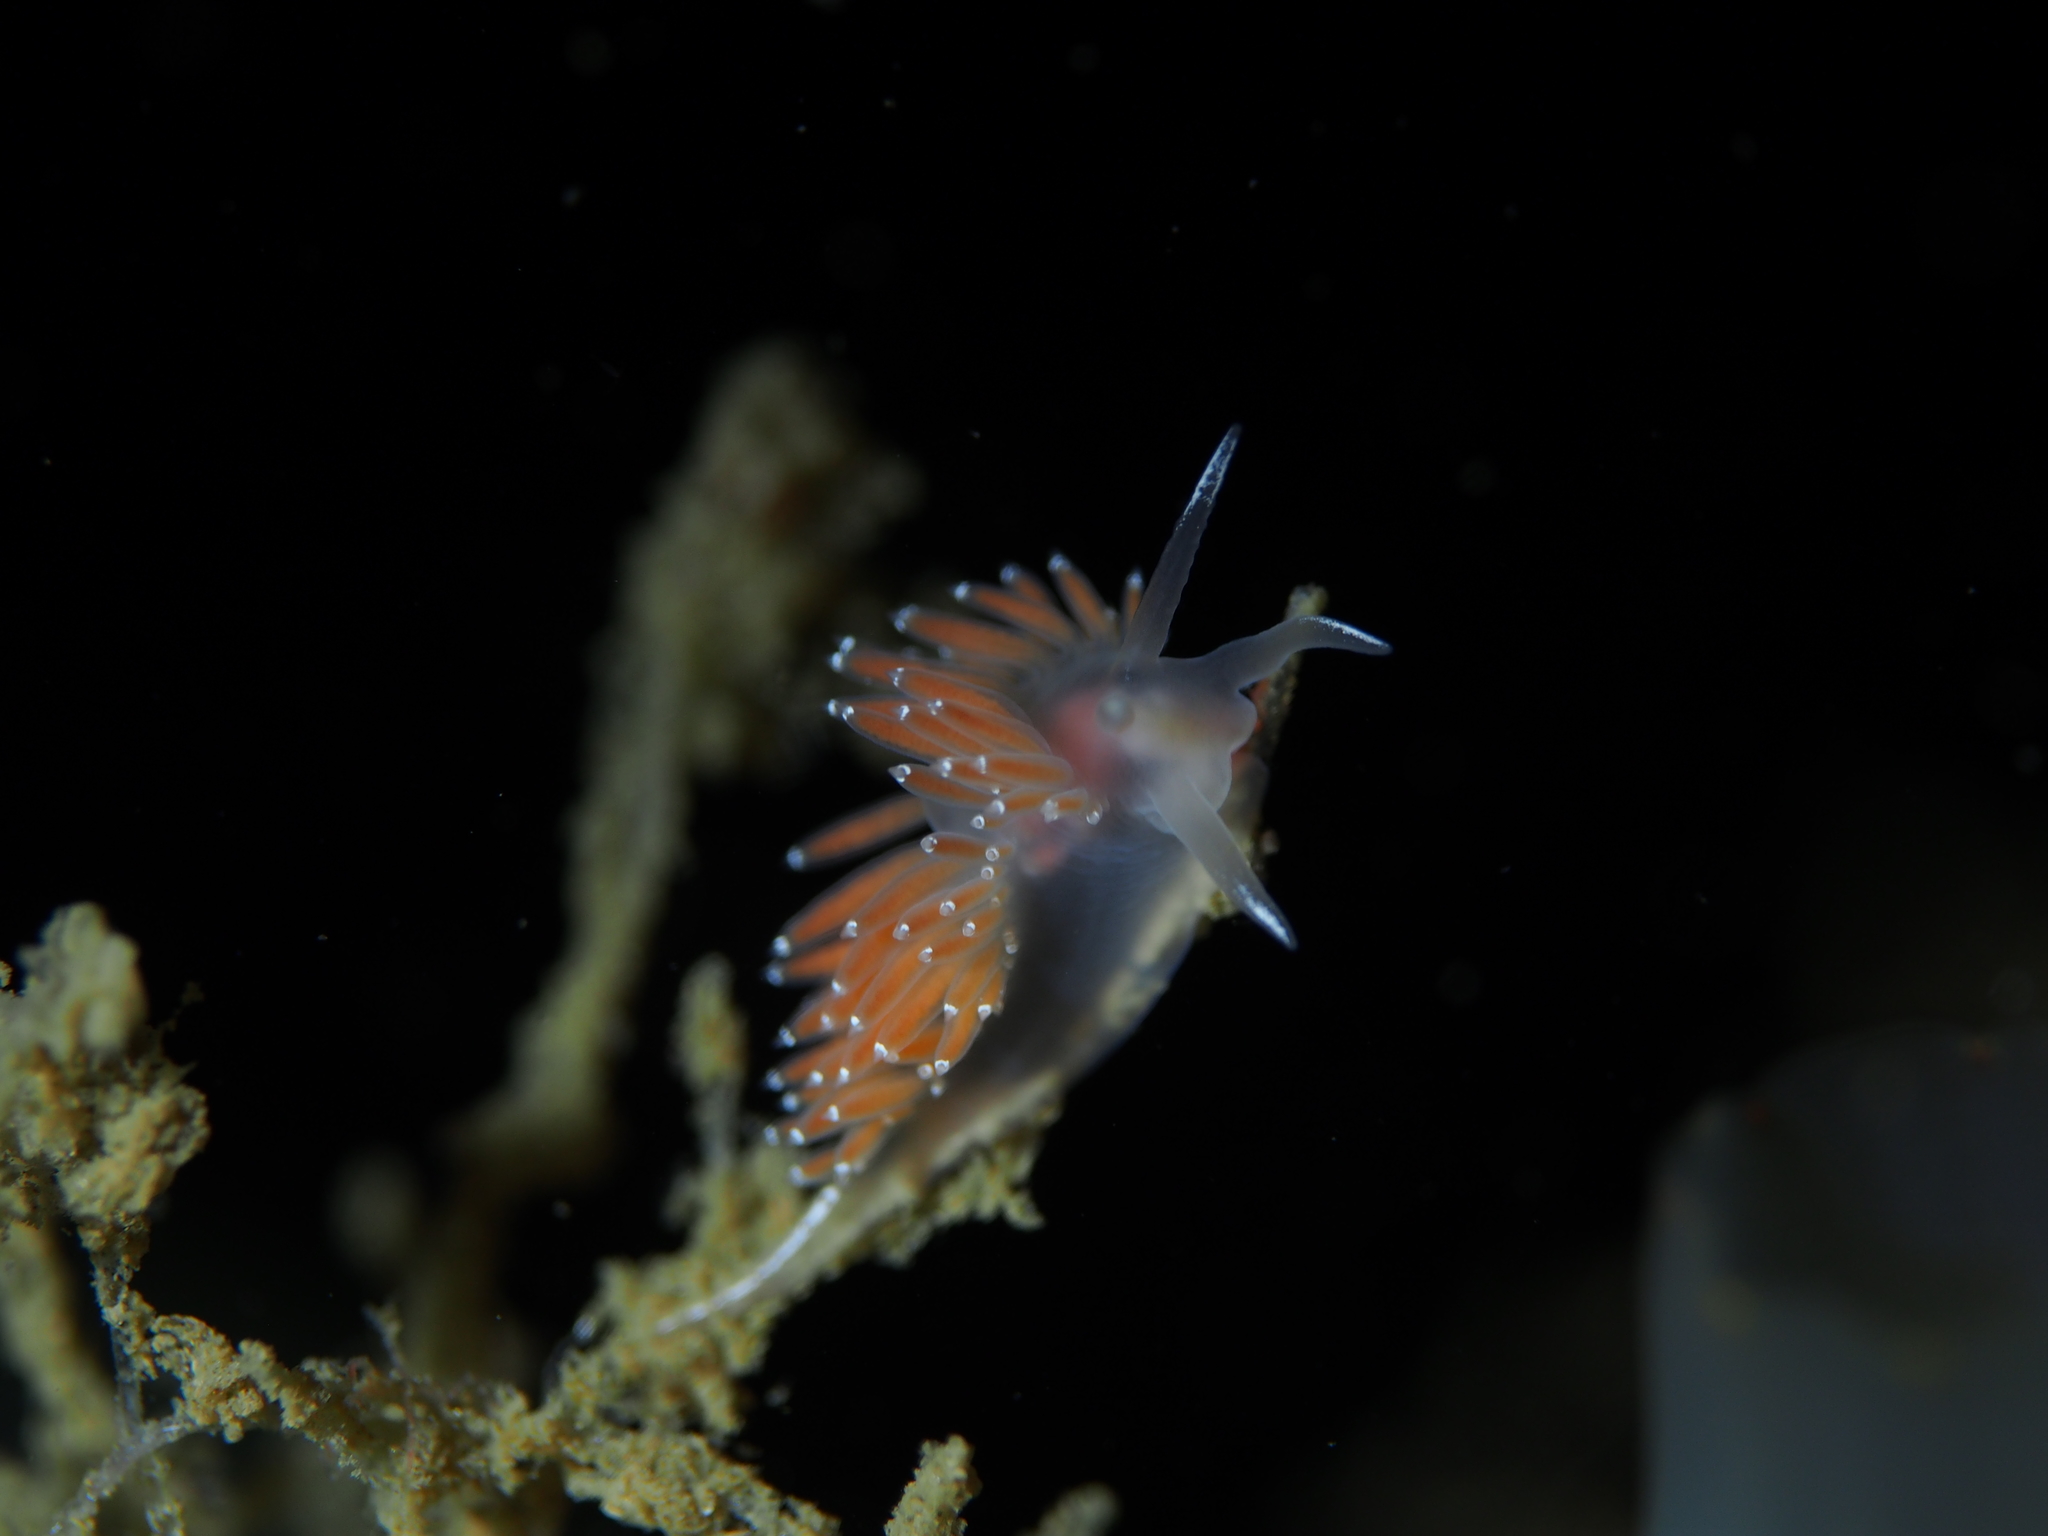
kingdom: Animalia
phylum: Mollusca
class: Gastropoda
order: Nudibranchia
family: Coryphellidae
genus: Coryphella
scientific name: Coryphella verrucosa
